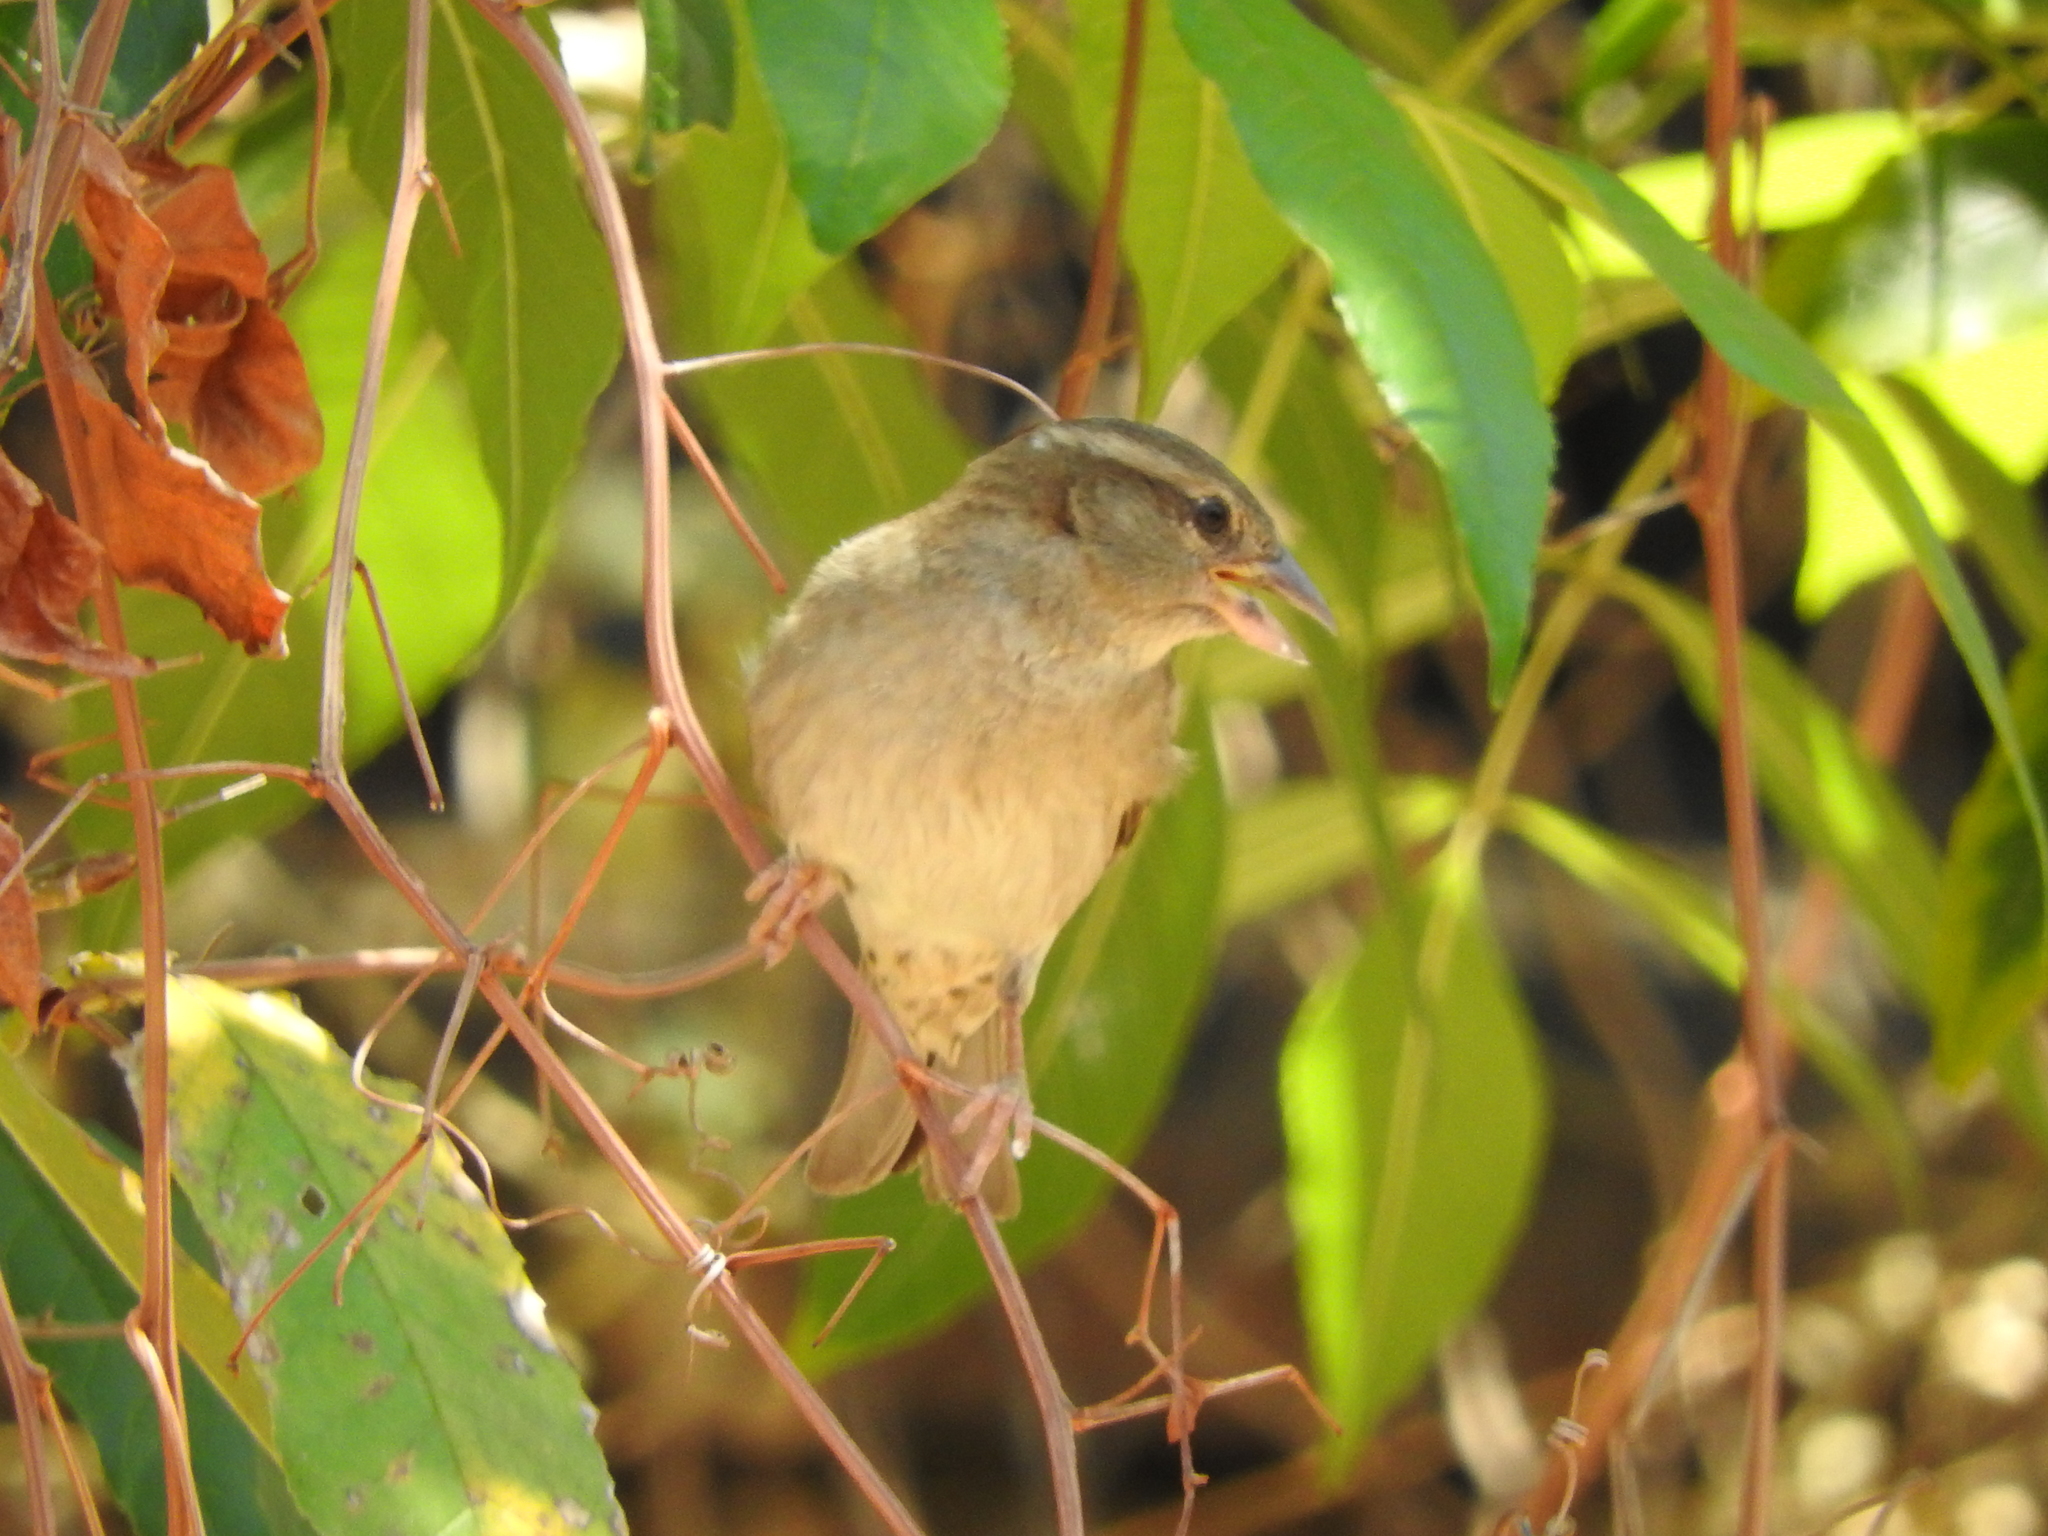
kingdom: Animalia
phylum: Chordata
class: Aves
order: Passeriformes
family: Passeridae
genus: Passer
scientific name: Passer domesticus
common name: House sparrow
